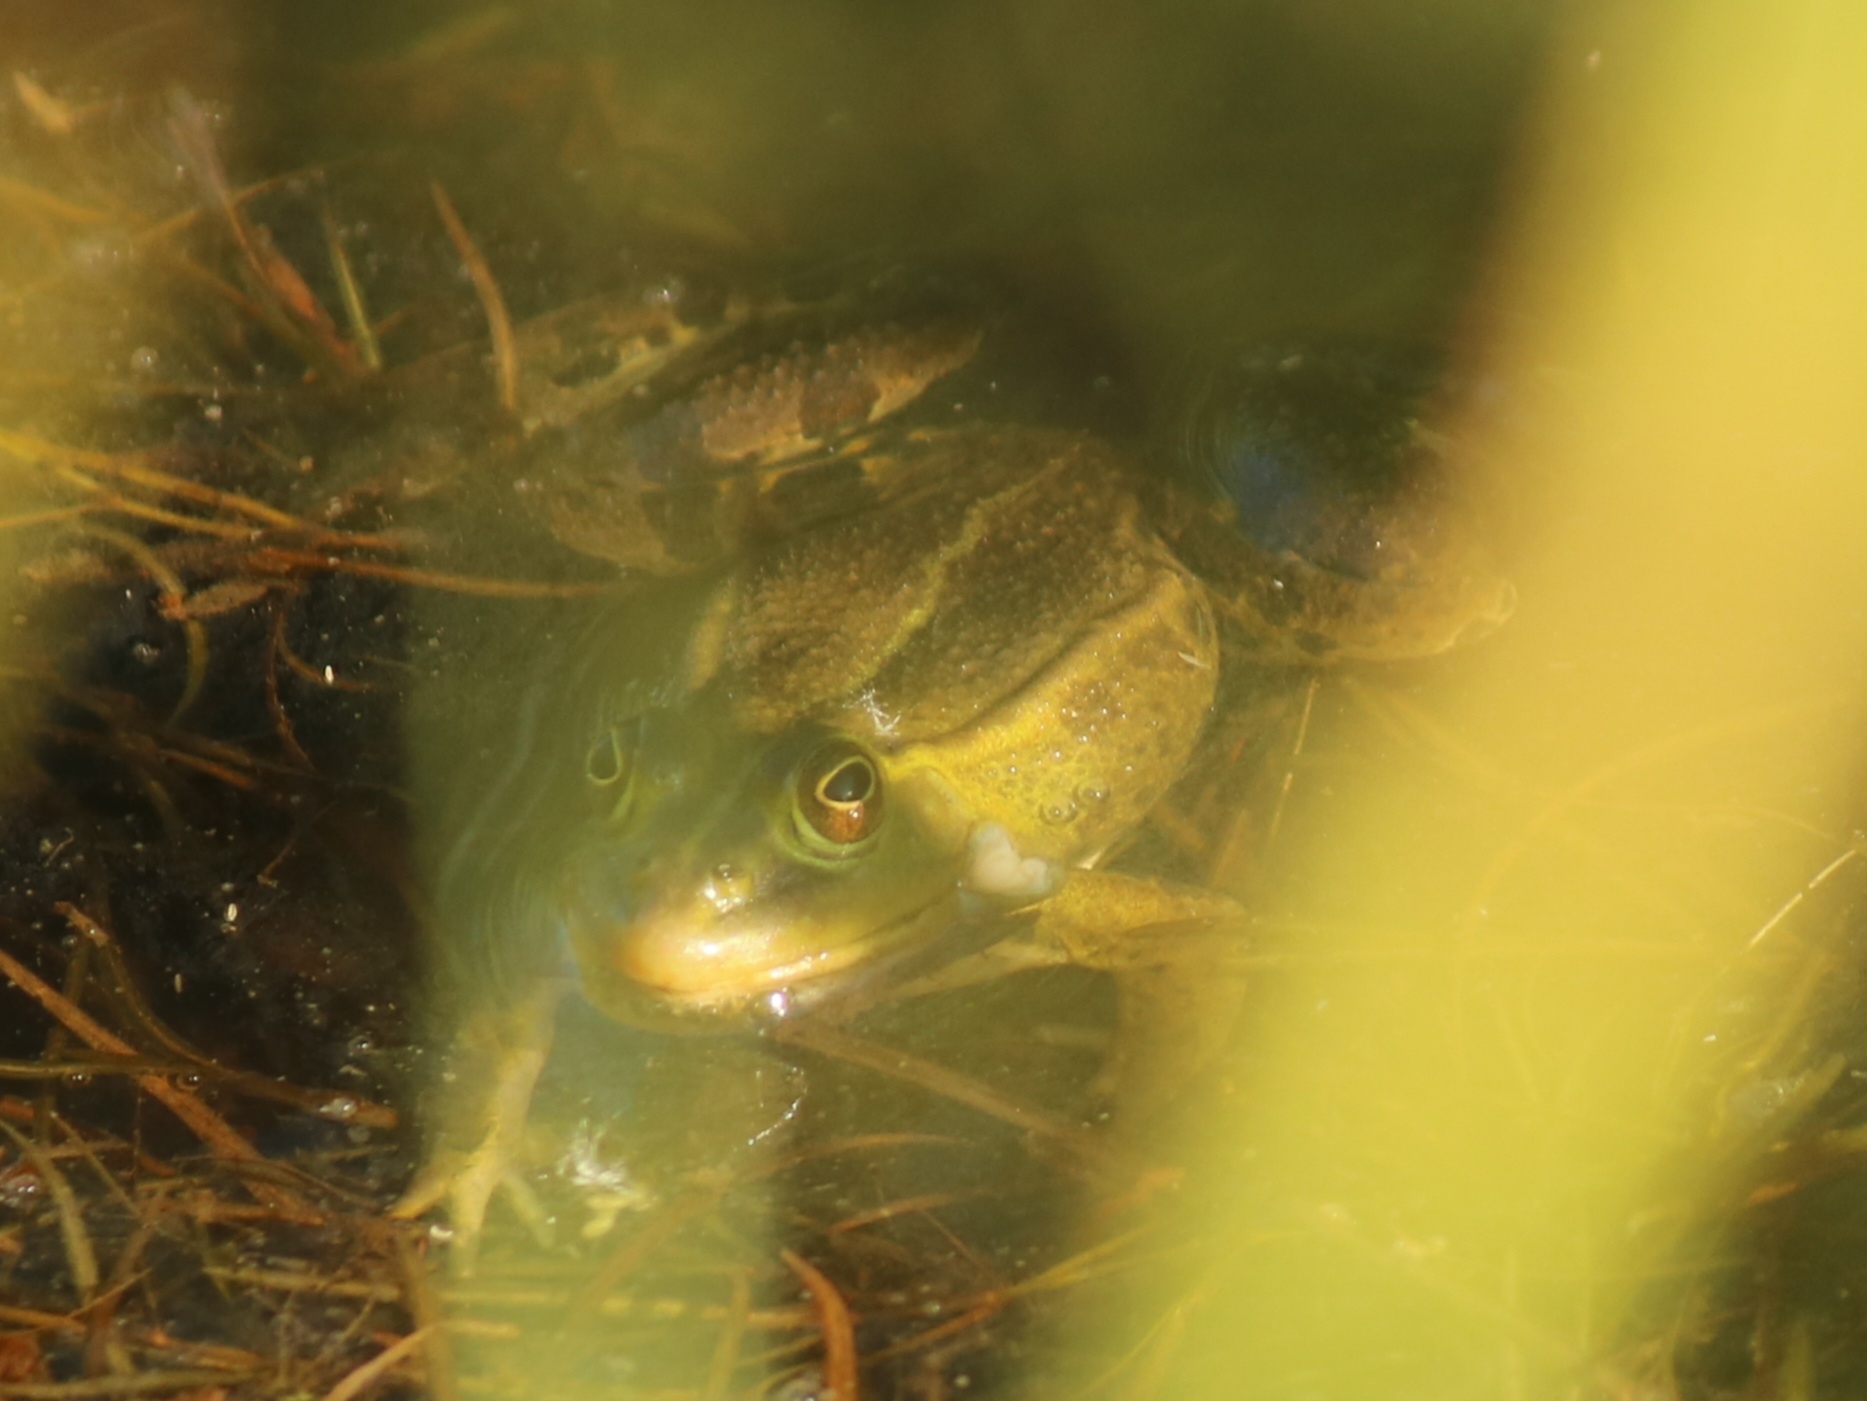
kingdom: Animalia
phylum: Chordata
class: Amphibia
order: Anura
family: Ranidae
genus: Pelophylax
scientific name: Pelophylax
